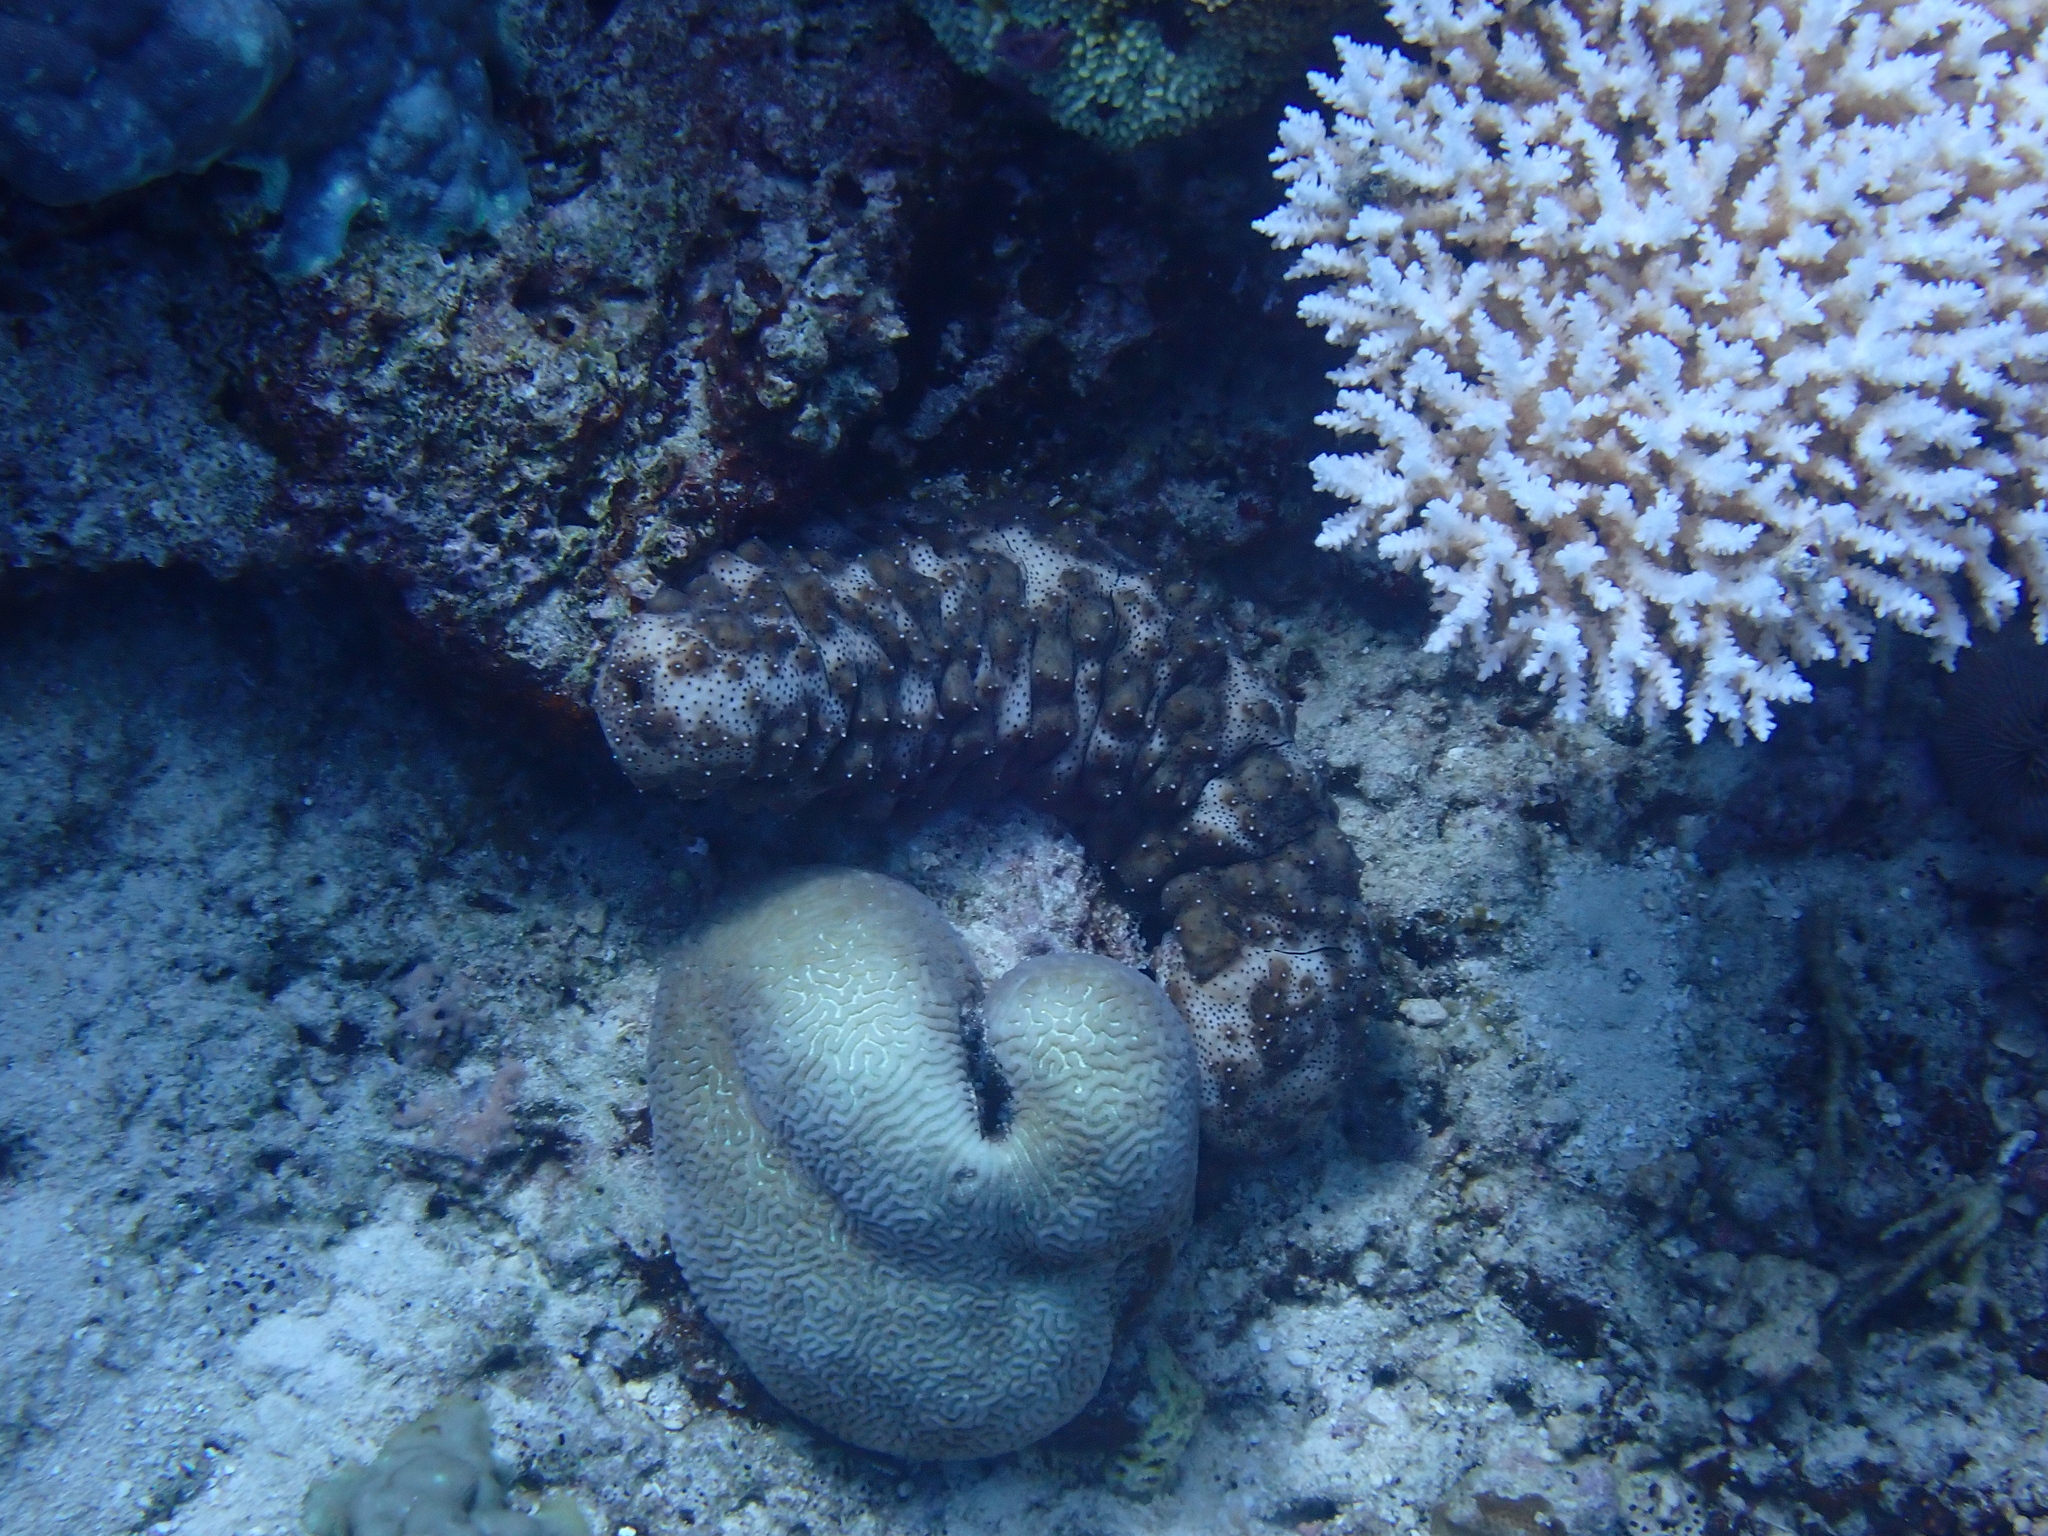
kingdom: Animalia
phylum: Echinodermata
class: Holothuroidea
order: Holothuriida
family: Holothuriidae
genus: Pearsonothuria
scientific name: Pearsonothuria graeffei
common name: Blackspotted sea cucumber
